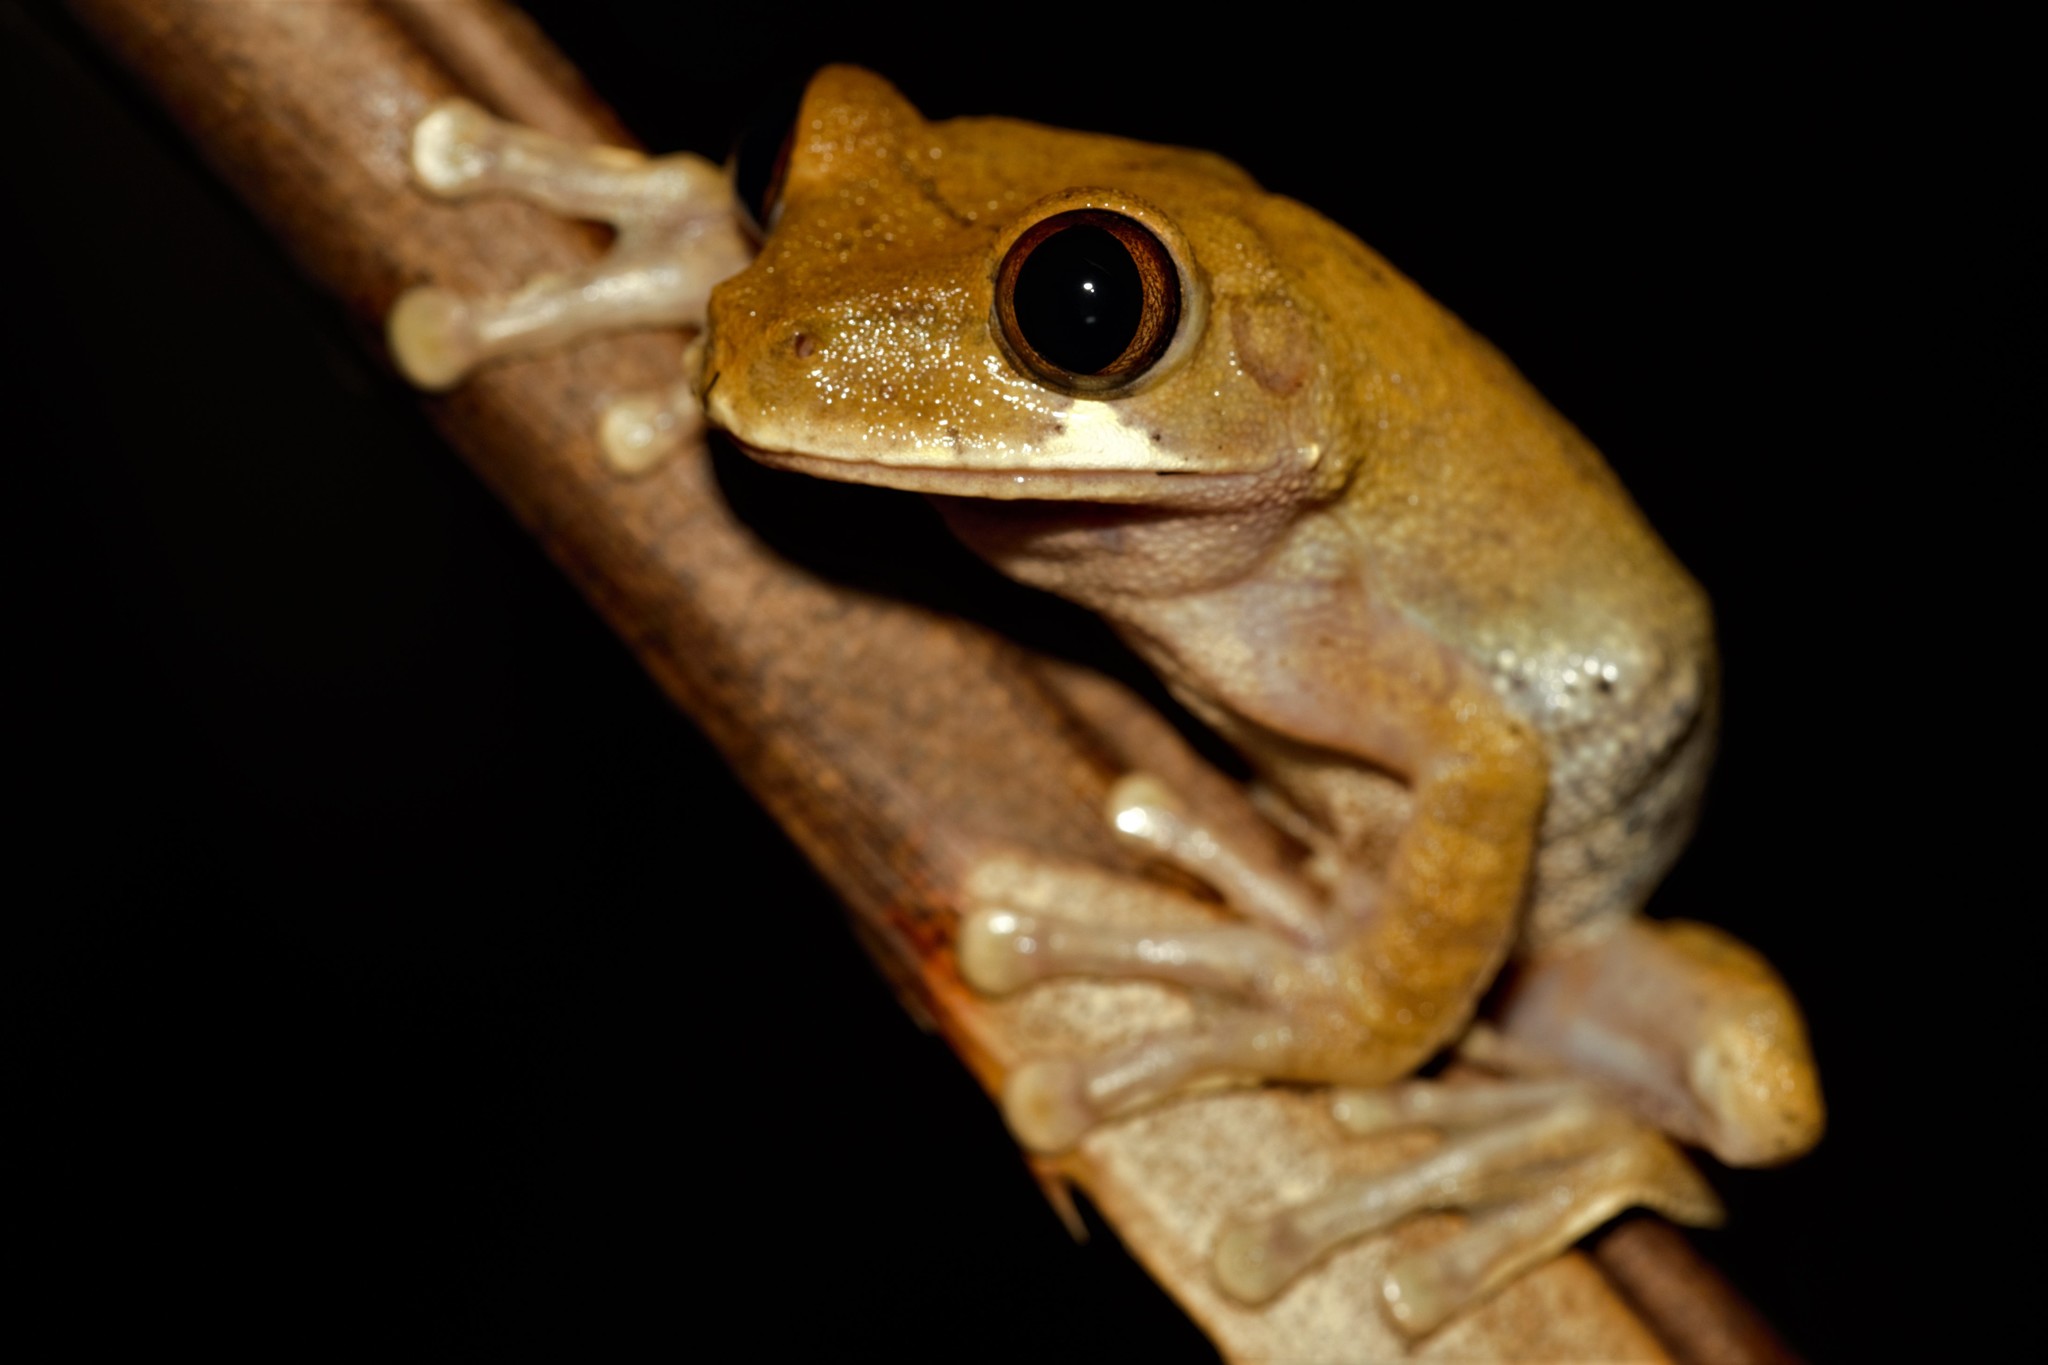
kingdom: Animalia
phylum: Chordata
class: Amphibia
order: Anura
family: Arthroleptidae
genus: Leptopelis
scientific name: Leptopelis boulengeri
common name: Victoria forest treefrog
